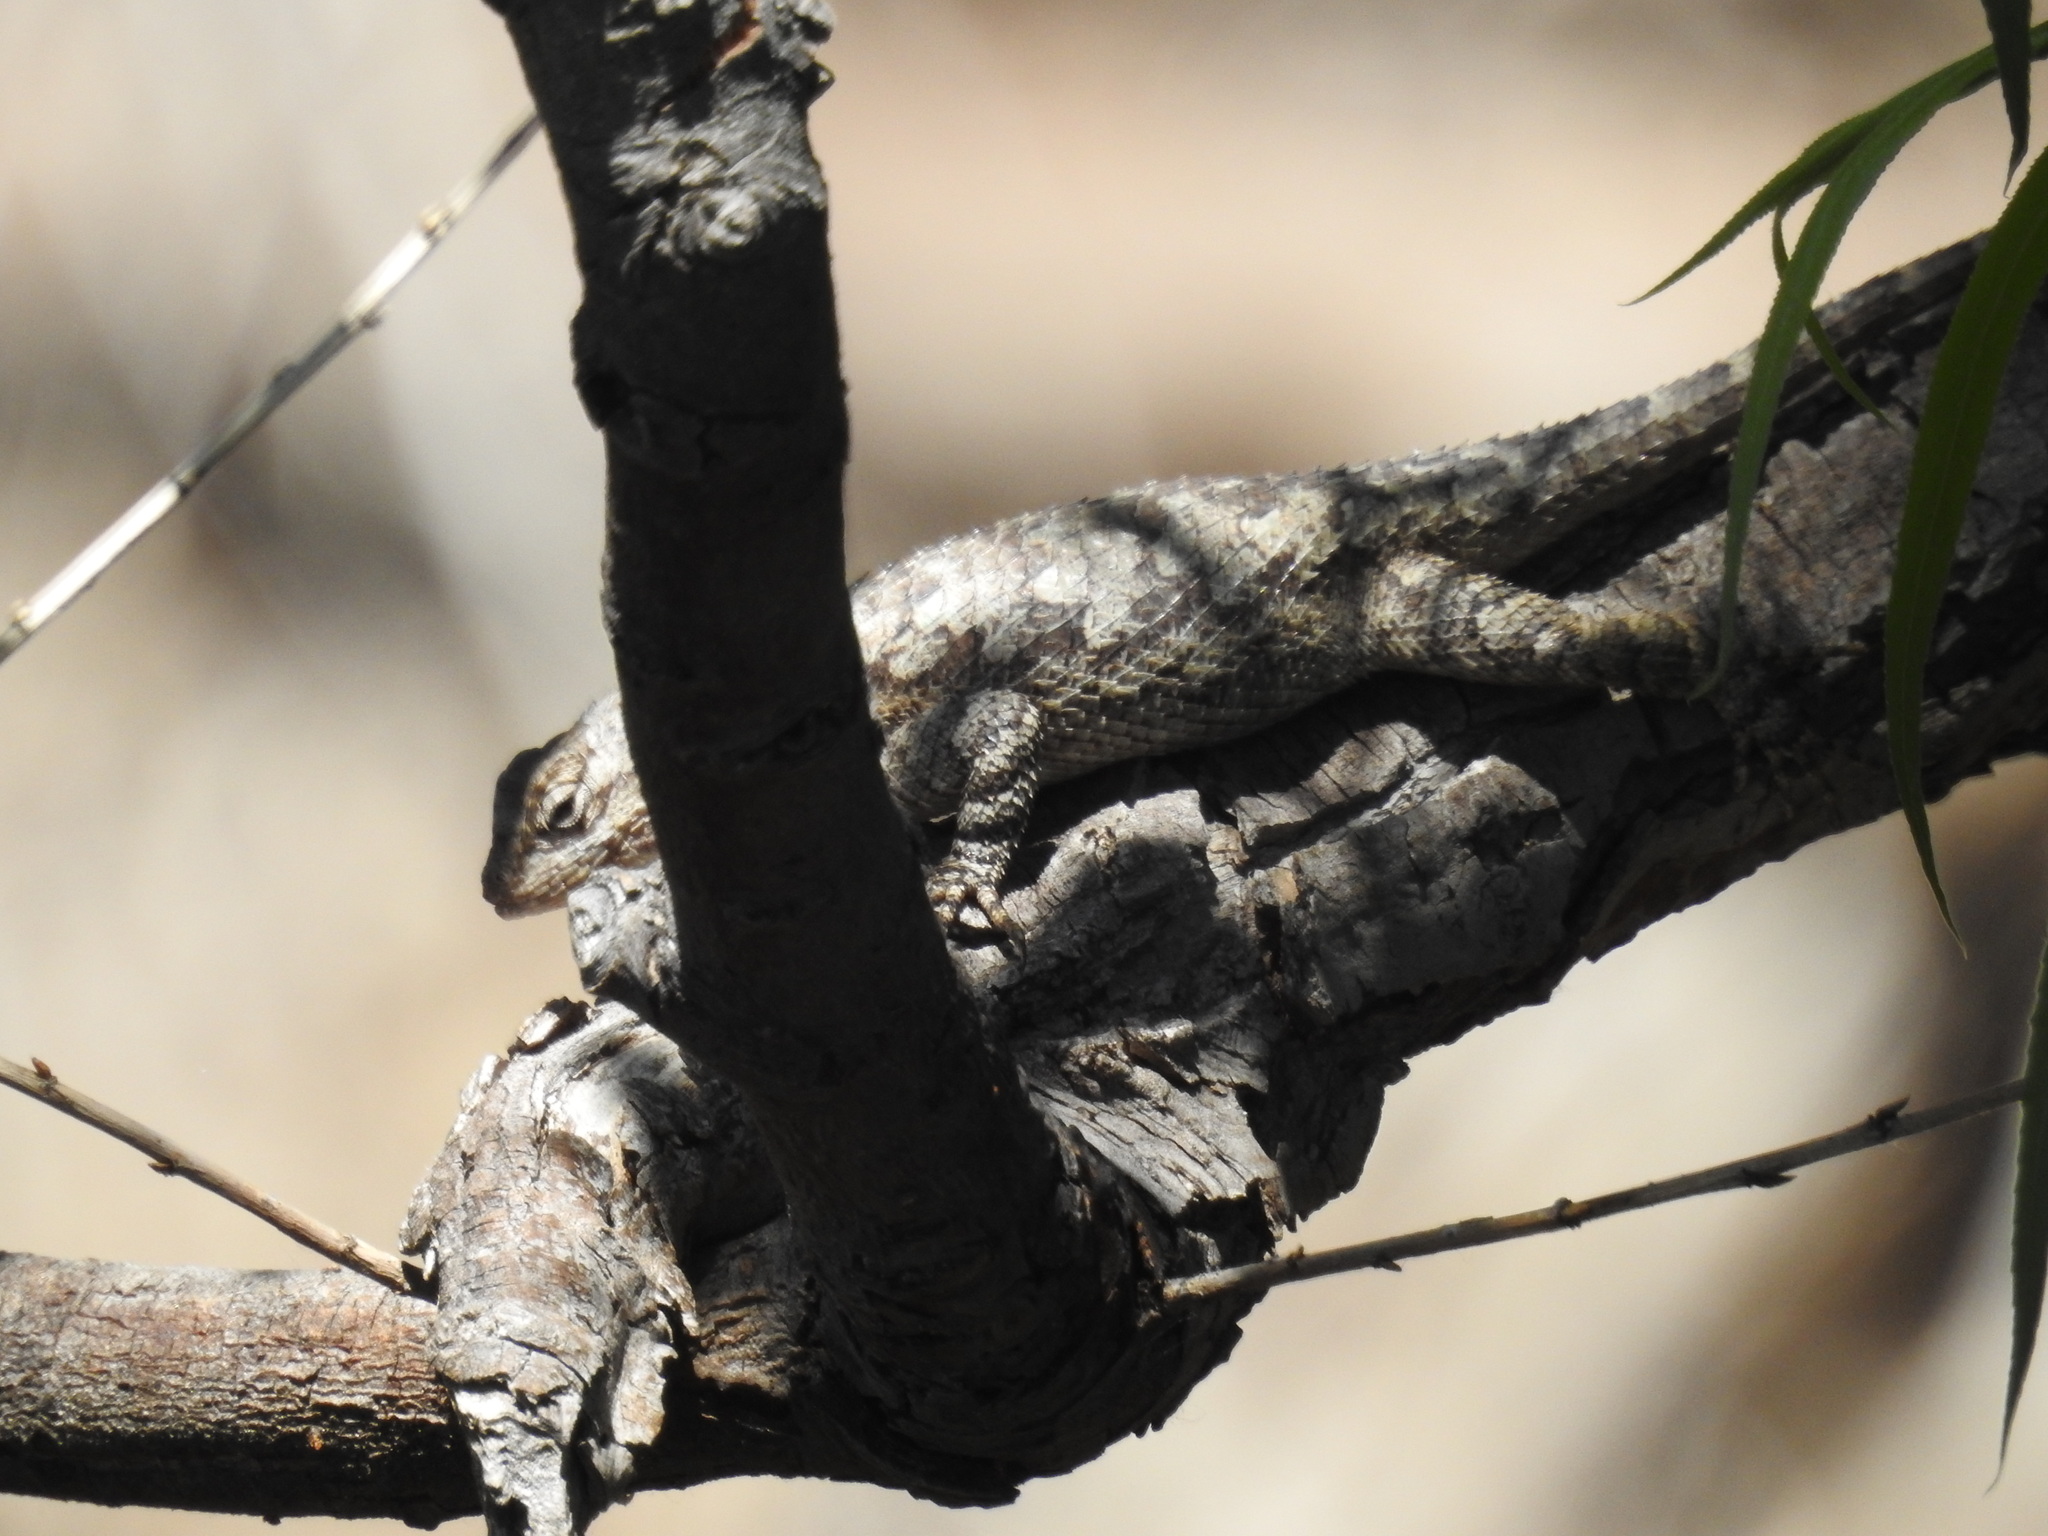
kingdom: Animalia
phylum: Chordata
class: Squamata
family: Phrynosomatidae
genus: Sceloporus
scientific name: Sceloporus clarkii
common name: Clark's spiny lizard
